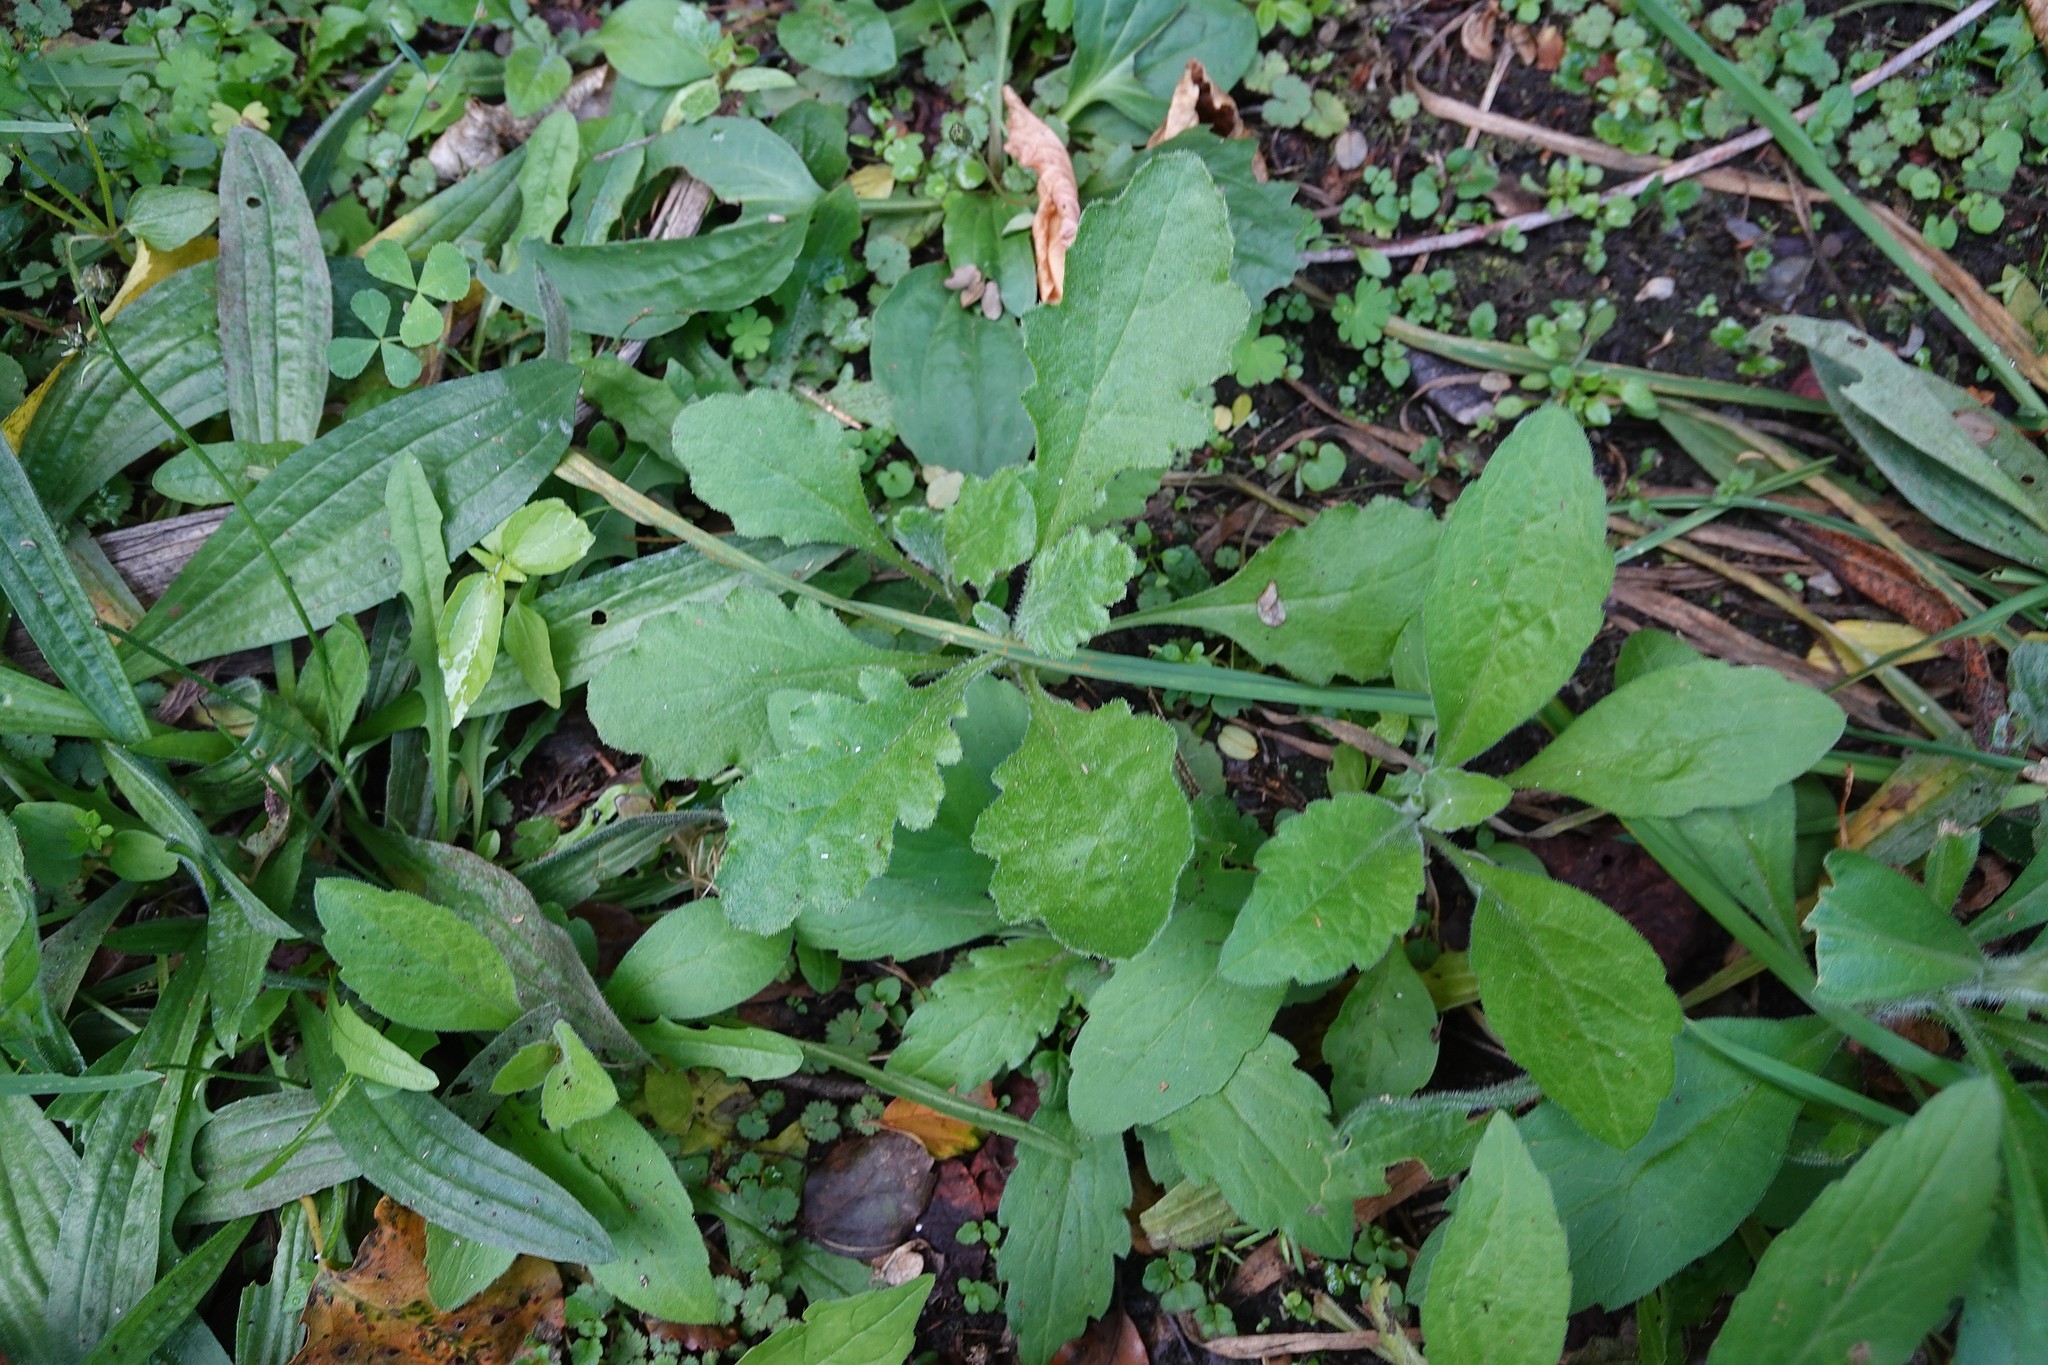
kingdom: Plantae
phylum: Tracheophyta
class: Magnoliopsida
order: Asterales
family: Asteraceae
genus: Senecio
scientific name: Senecio glomeratus
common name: Cutleaf burnweed
